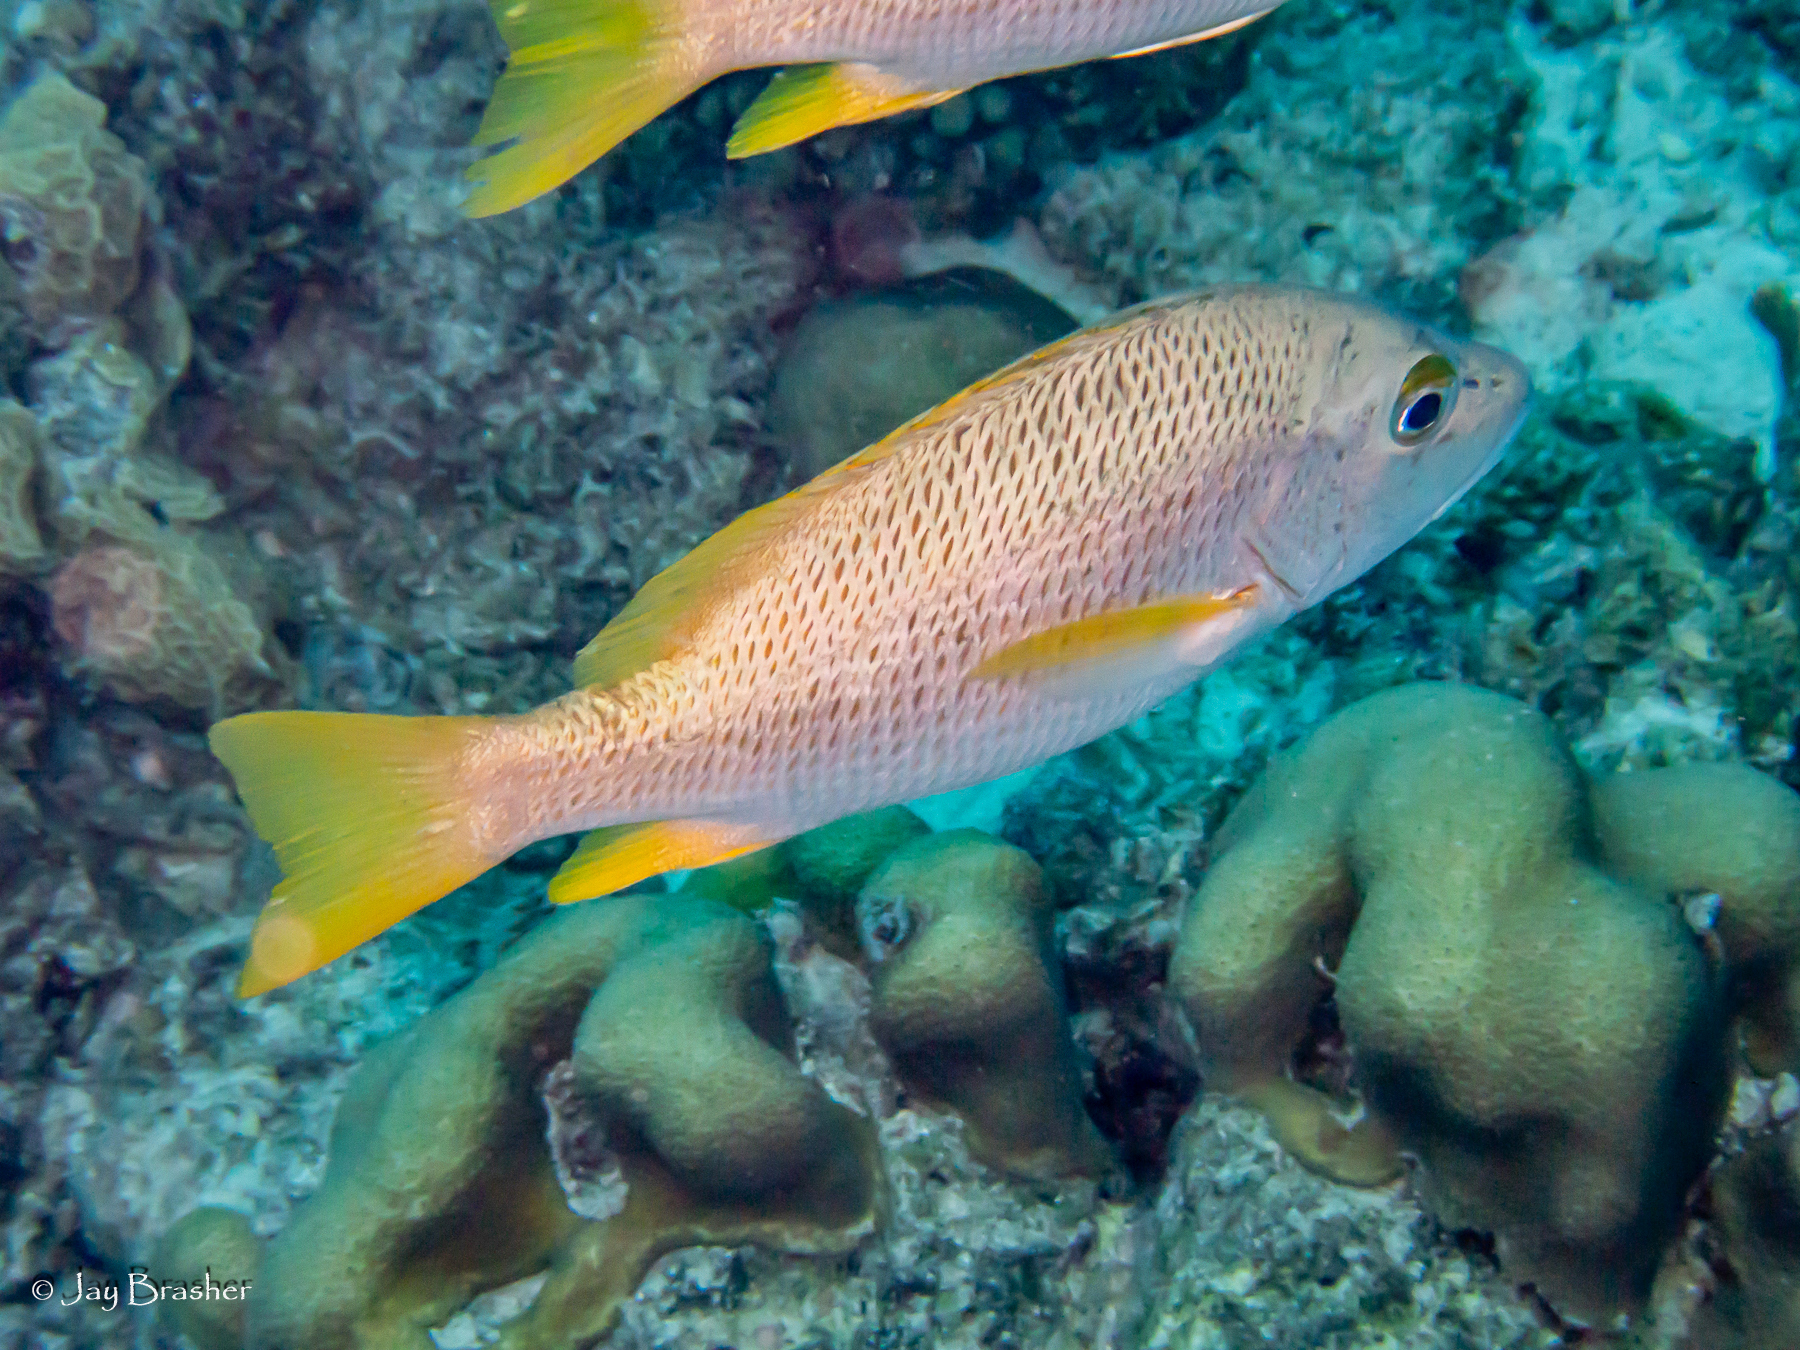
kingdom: Animalia
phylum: Chordata
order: Perciformes
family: Lutjanidae
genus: Lutjanus
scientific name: Lutjanus apodus
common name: Schoolmaster
